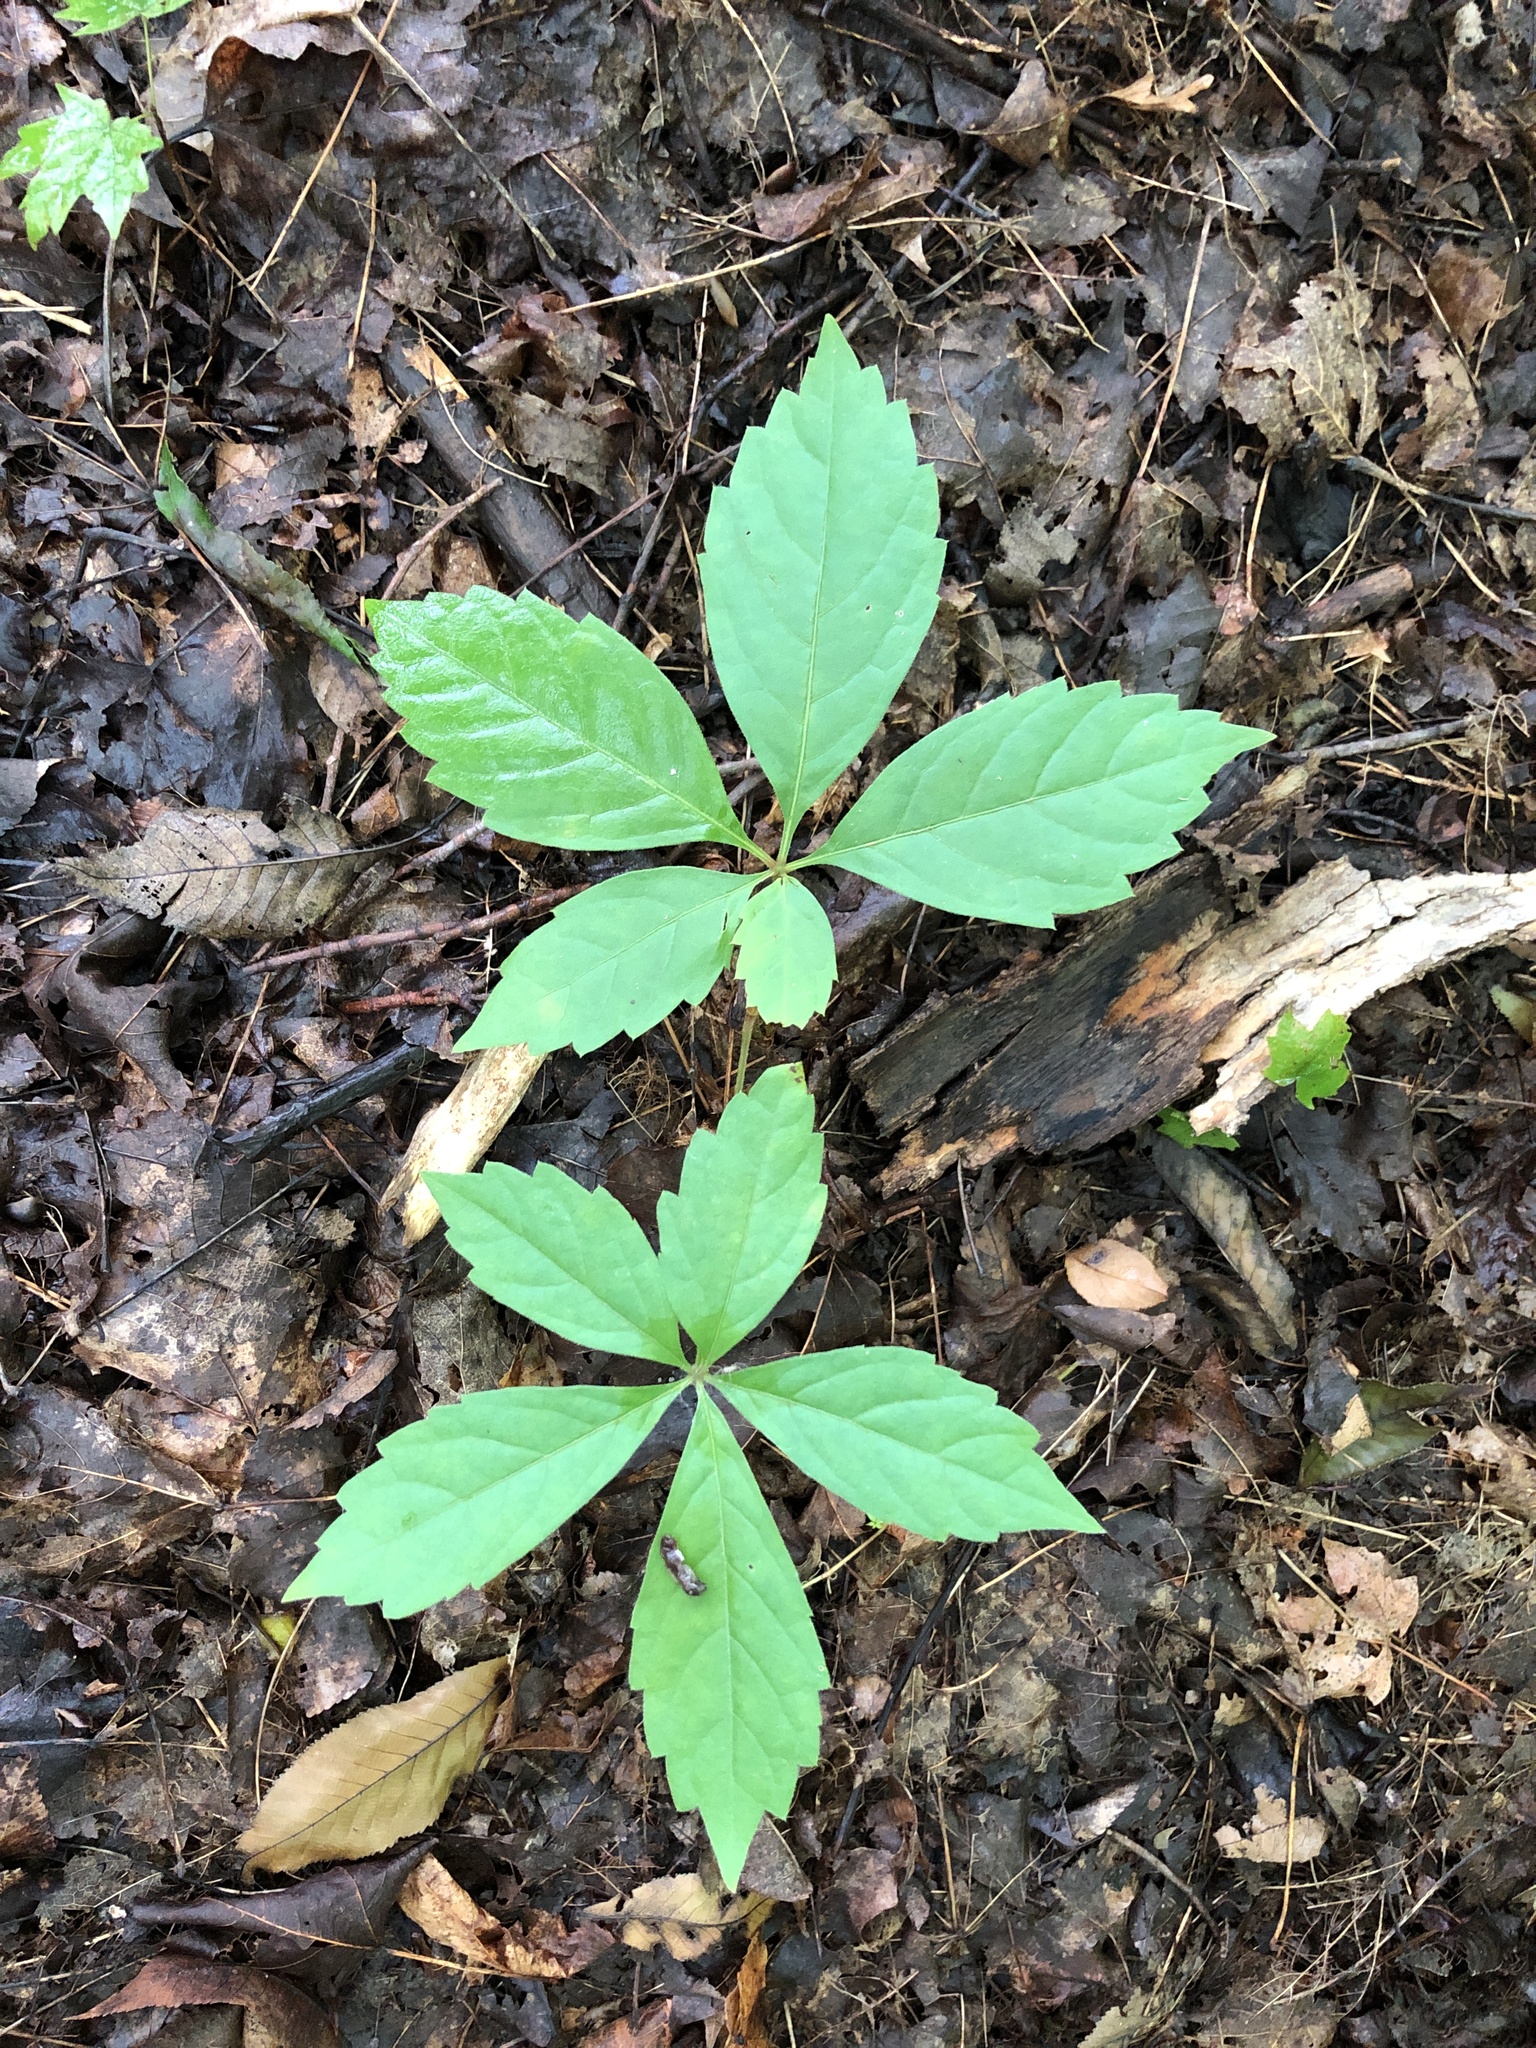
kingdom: Plantae
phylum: Tracheophyta
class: Magnoliopsida
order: Vitales
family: Vitaceae
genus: Parthenocissus
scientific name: Parthenocissus quinquefolia
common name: Virginia-creeper
